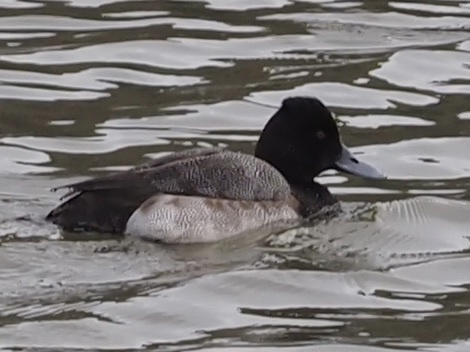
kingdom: Animalia
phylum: Chordata
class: Aves
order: Anseriformes
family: Anatidae
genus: Aythya
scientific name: Aythya affinis
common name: Lesser scaup
